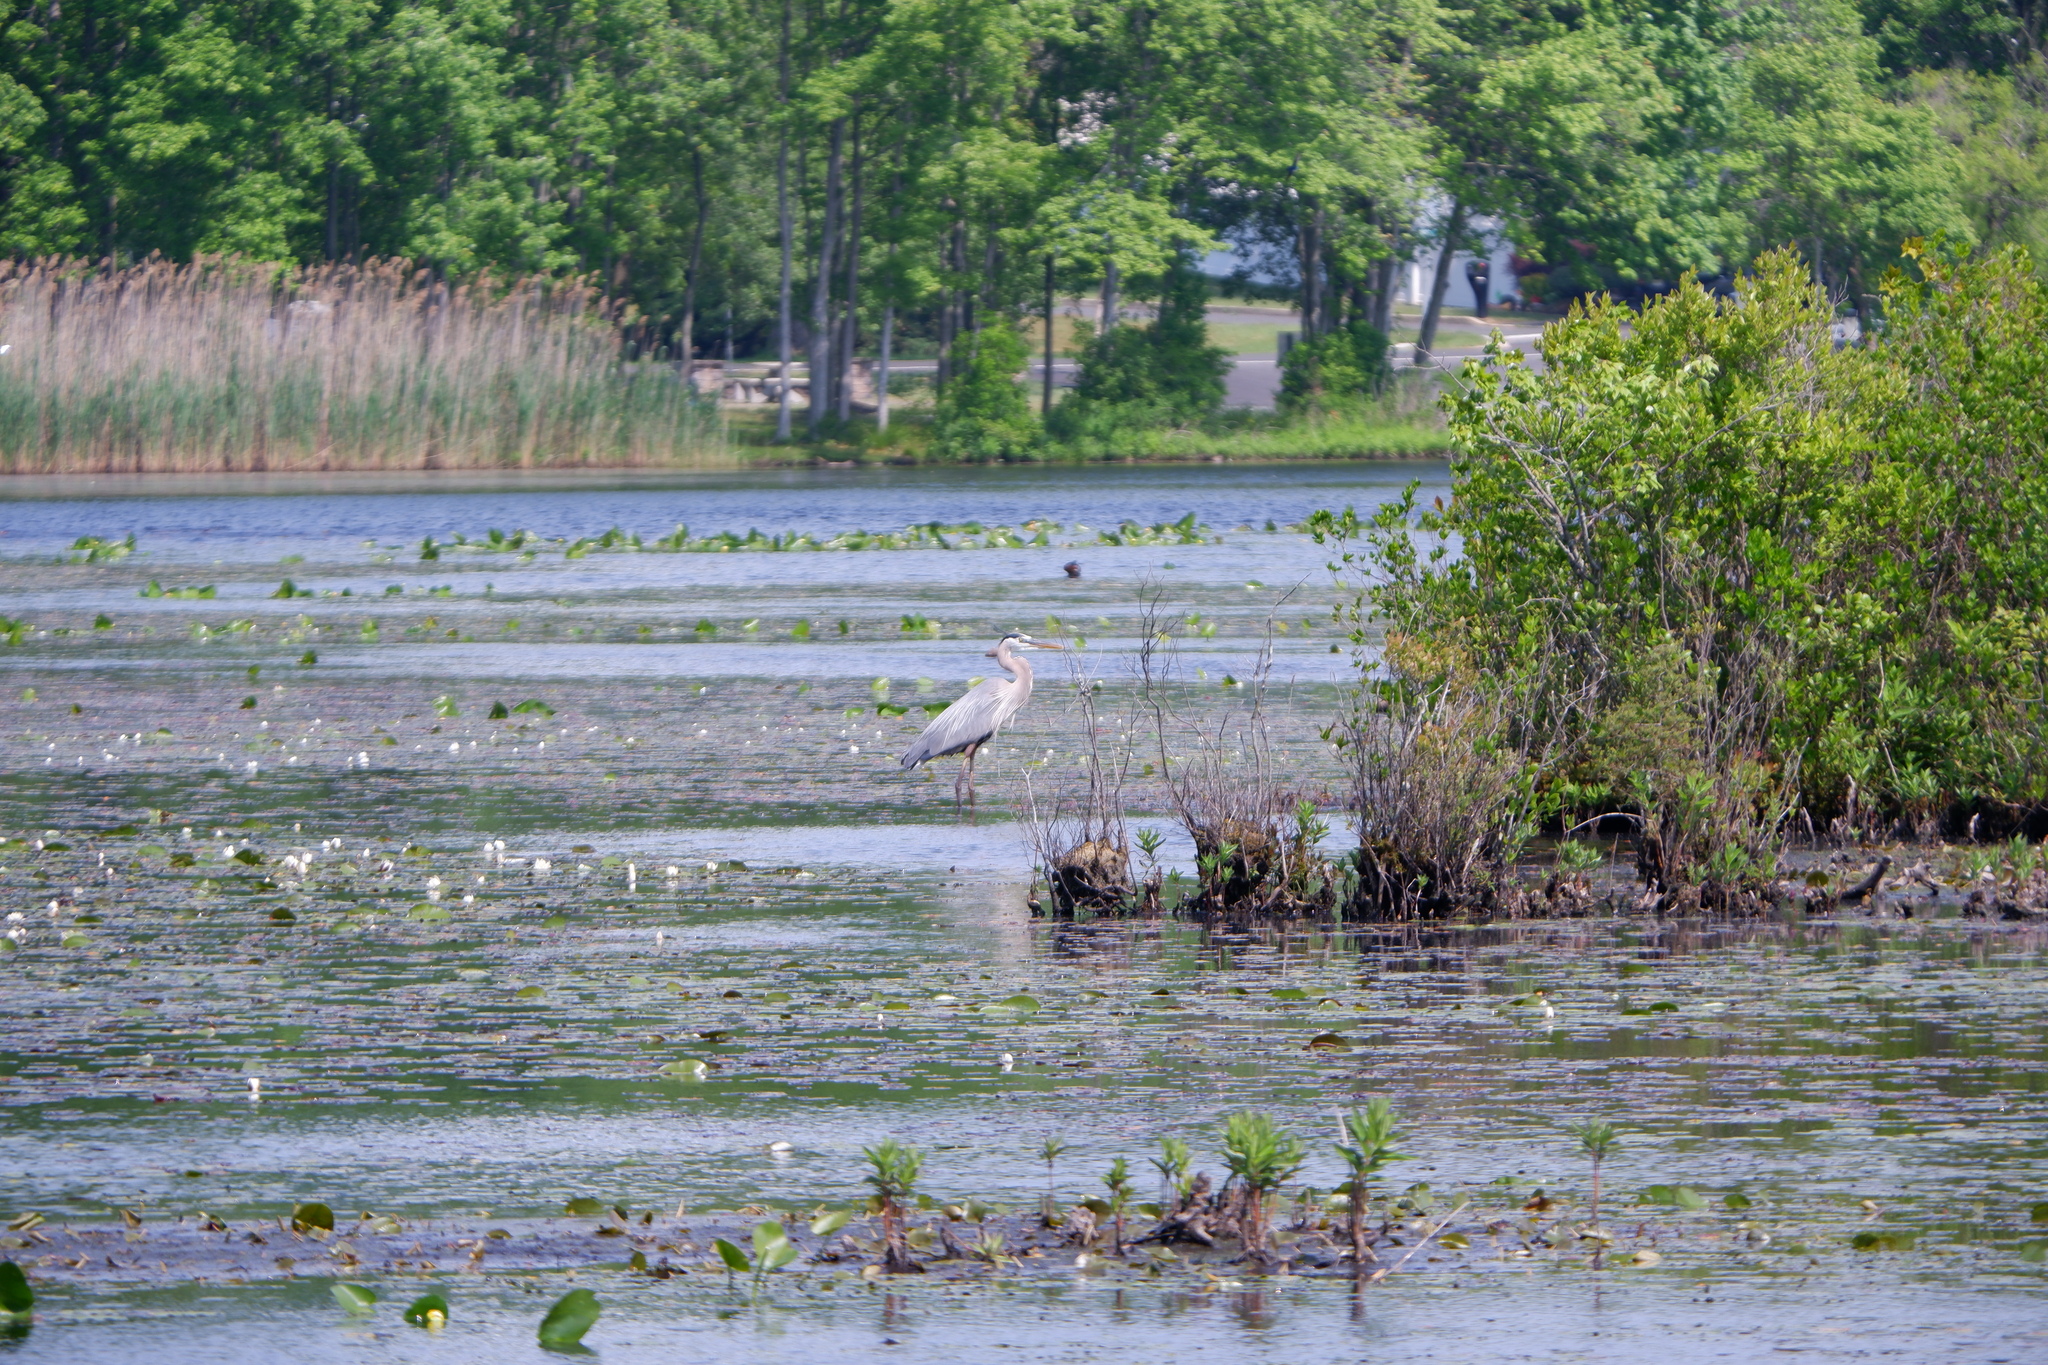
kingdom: Animalia
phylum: Chordata
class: Aves
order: Pelecaniformes
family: Ardeidae
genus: Ardea
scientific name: Ardea herodias
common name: Great blue heron
